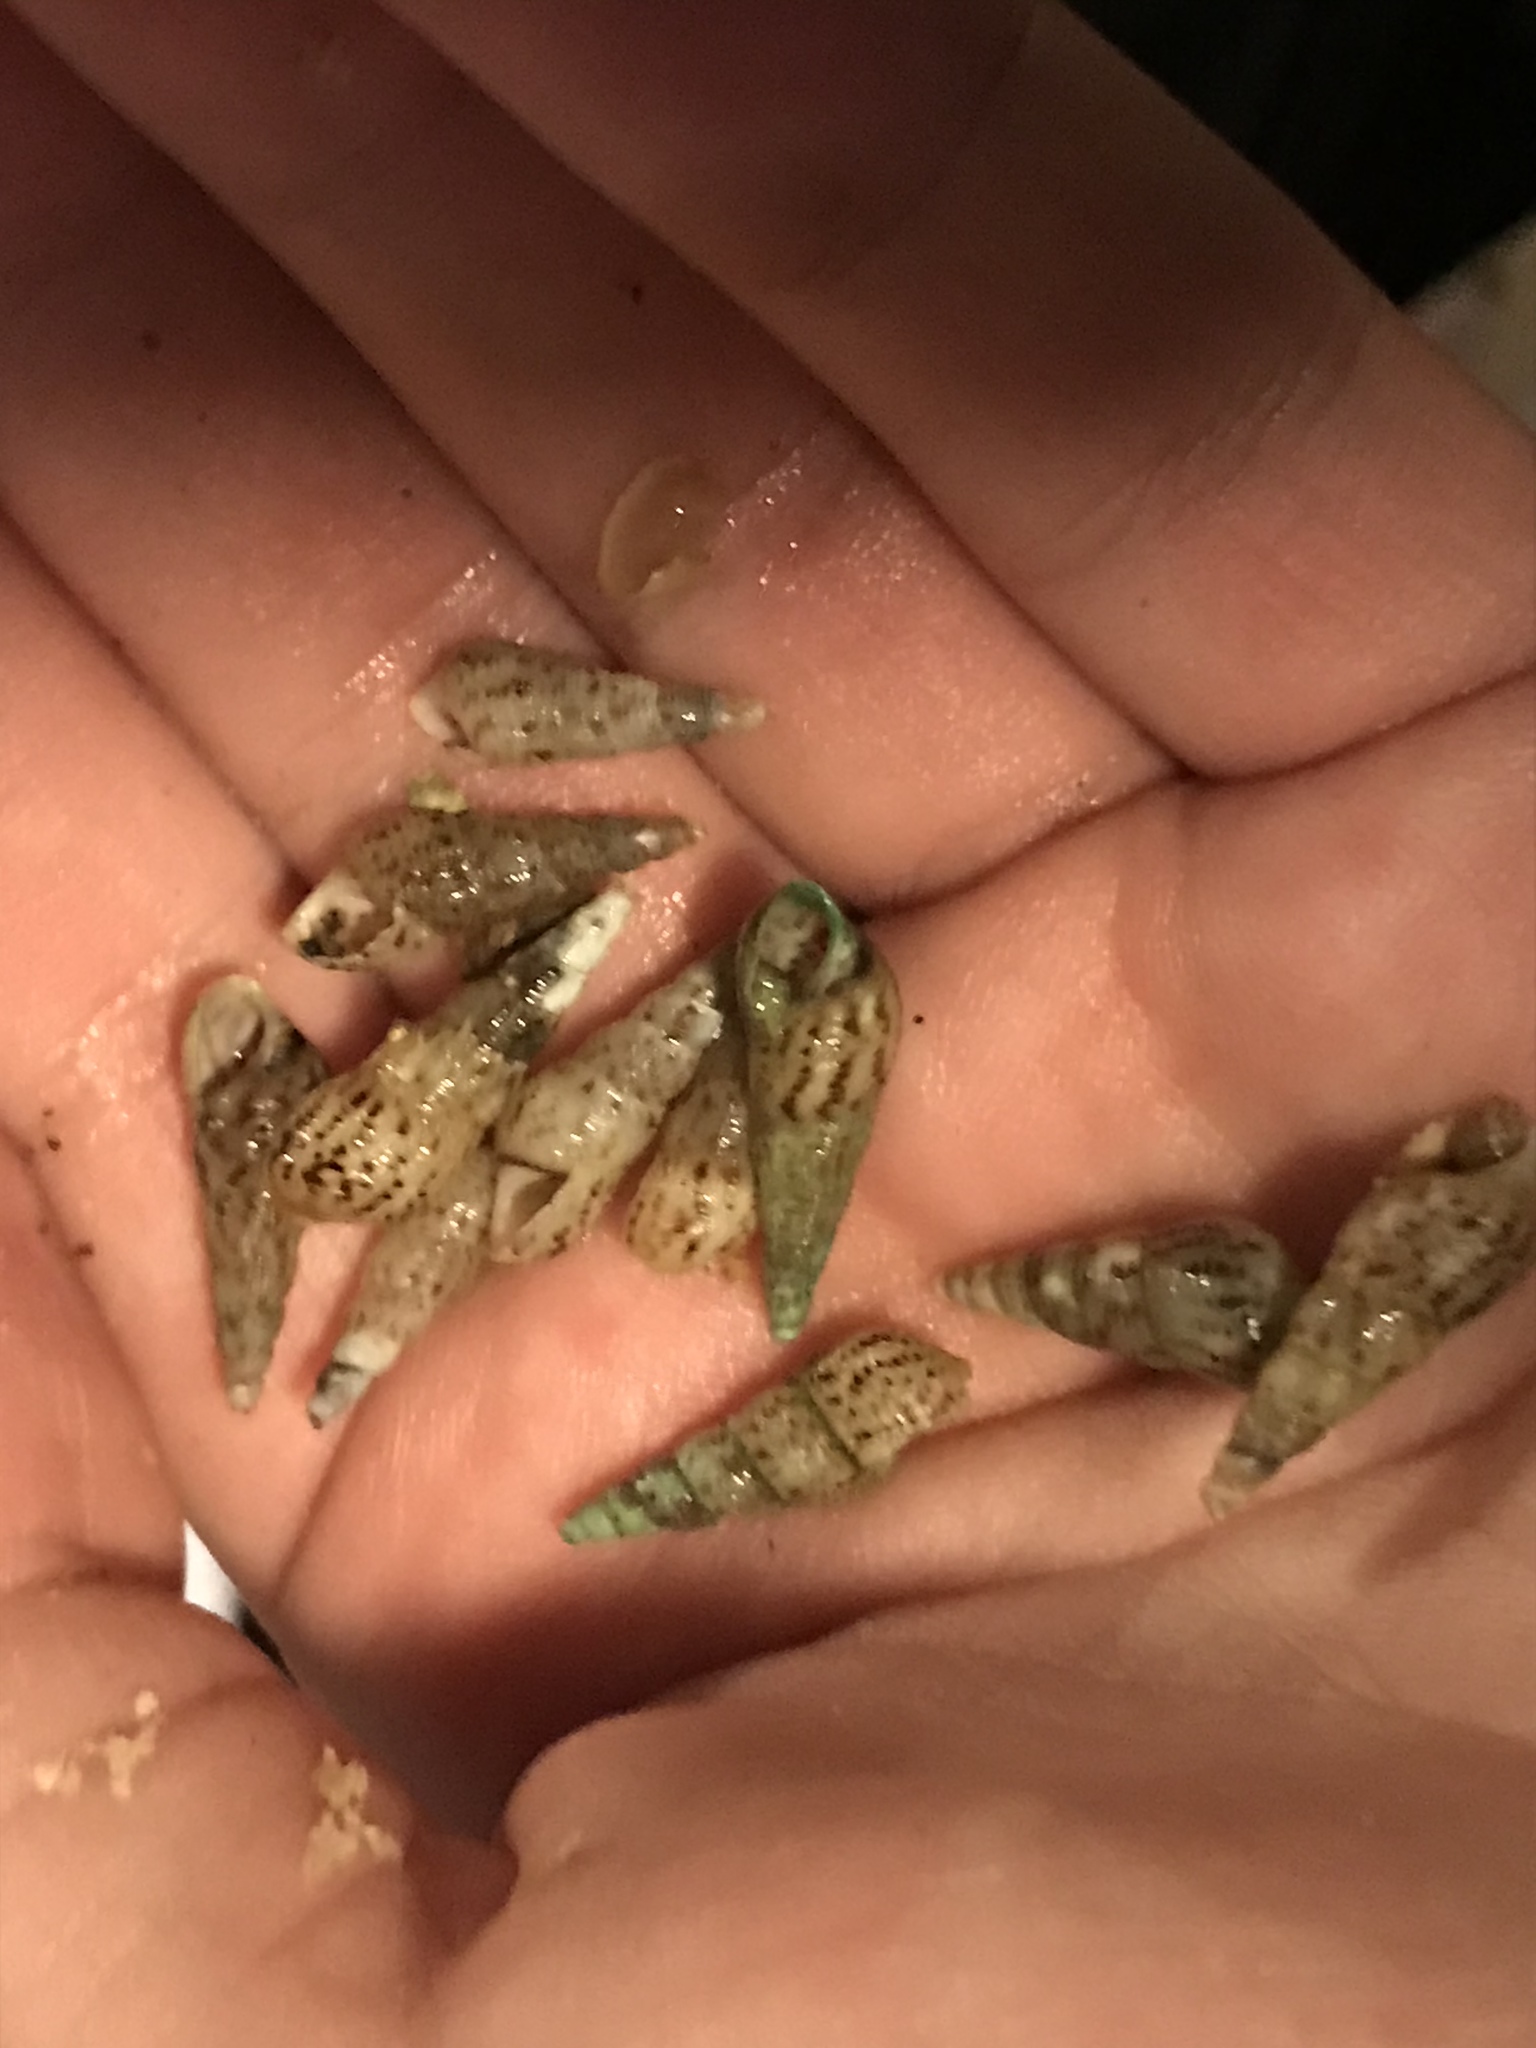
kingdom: Animalia
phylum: Mollusca
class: Gastropoda
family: Thiaridae
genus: Melanoides
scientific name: Melanoides tuberculata
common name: Red-rim melania
